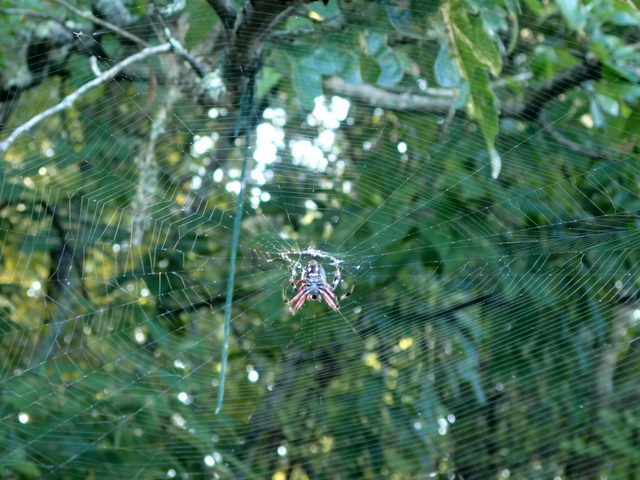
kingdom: Animalia
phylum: Arthropoda
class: Arachnida
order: Araneae
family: Araneidae
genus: Neoscona
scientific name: Neoscona domiciliorum
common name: Red-femured spotted orbweaver
